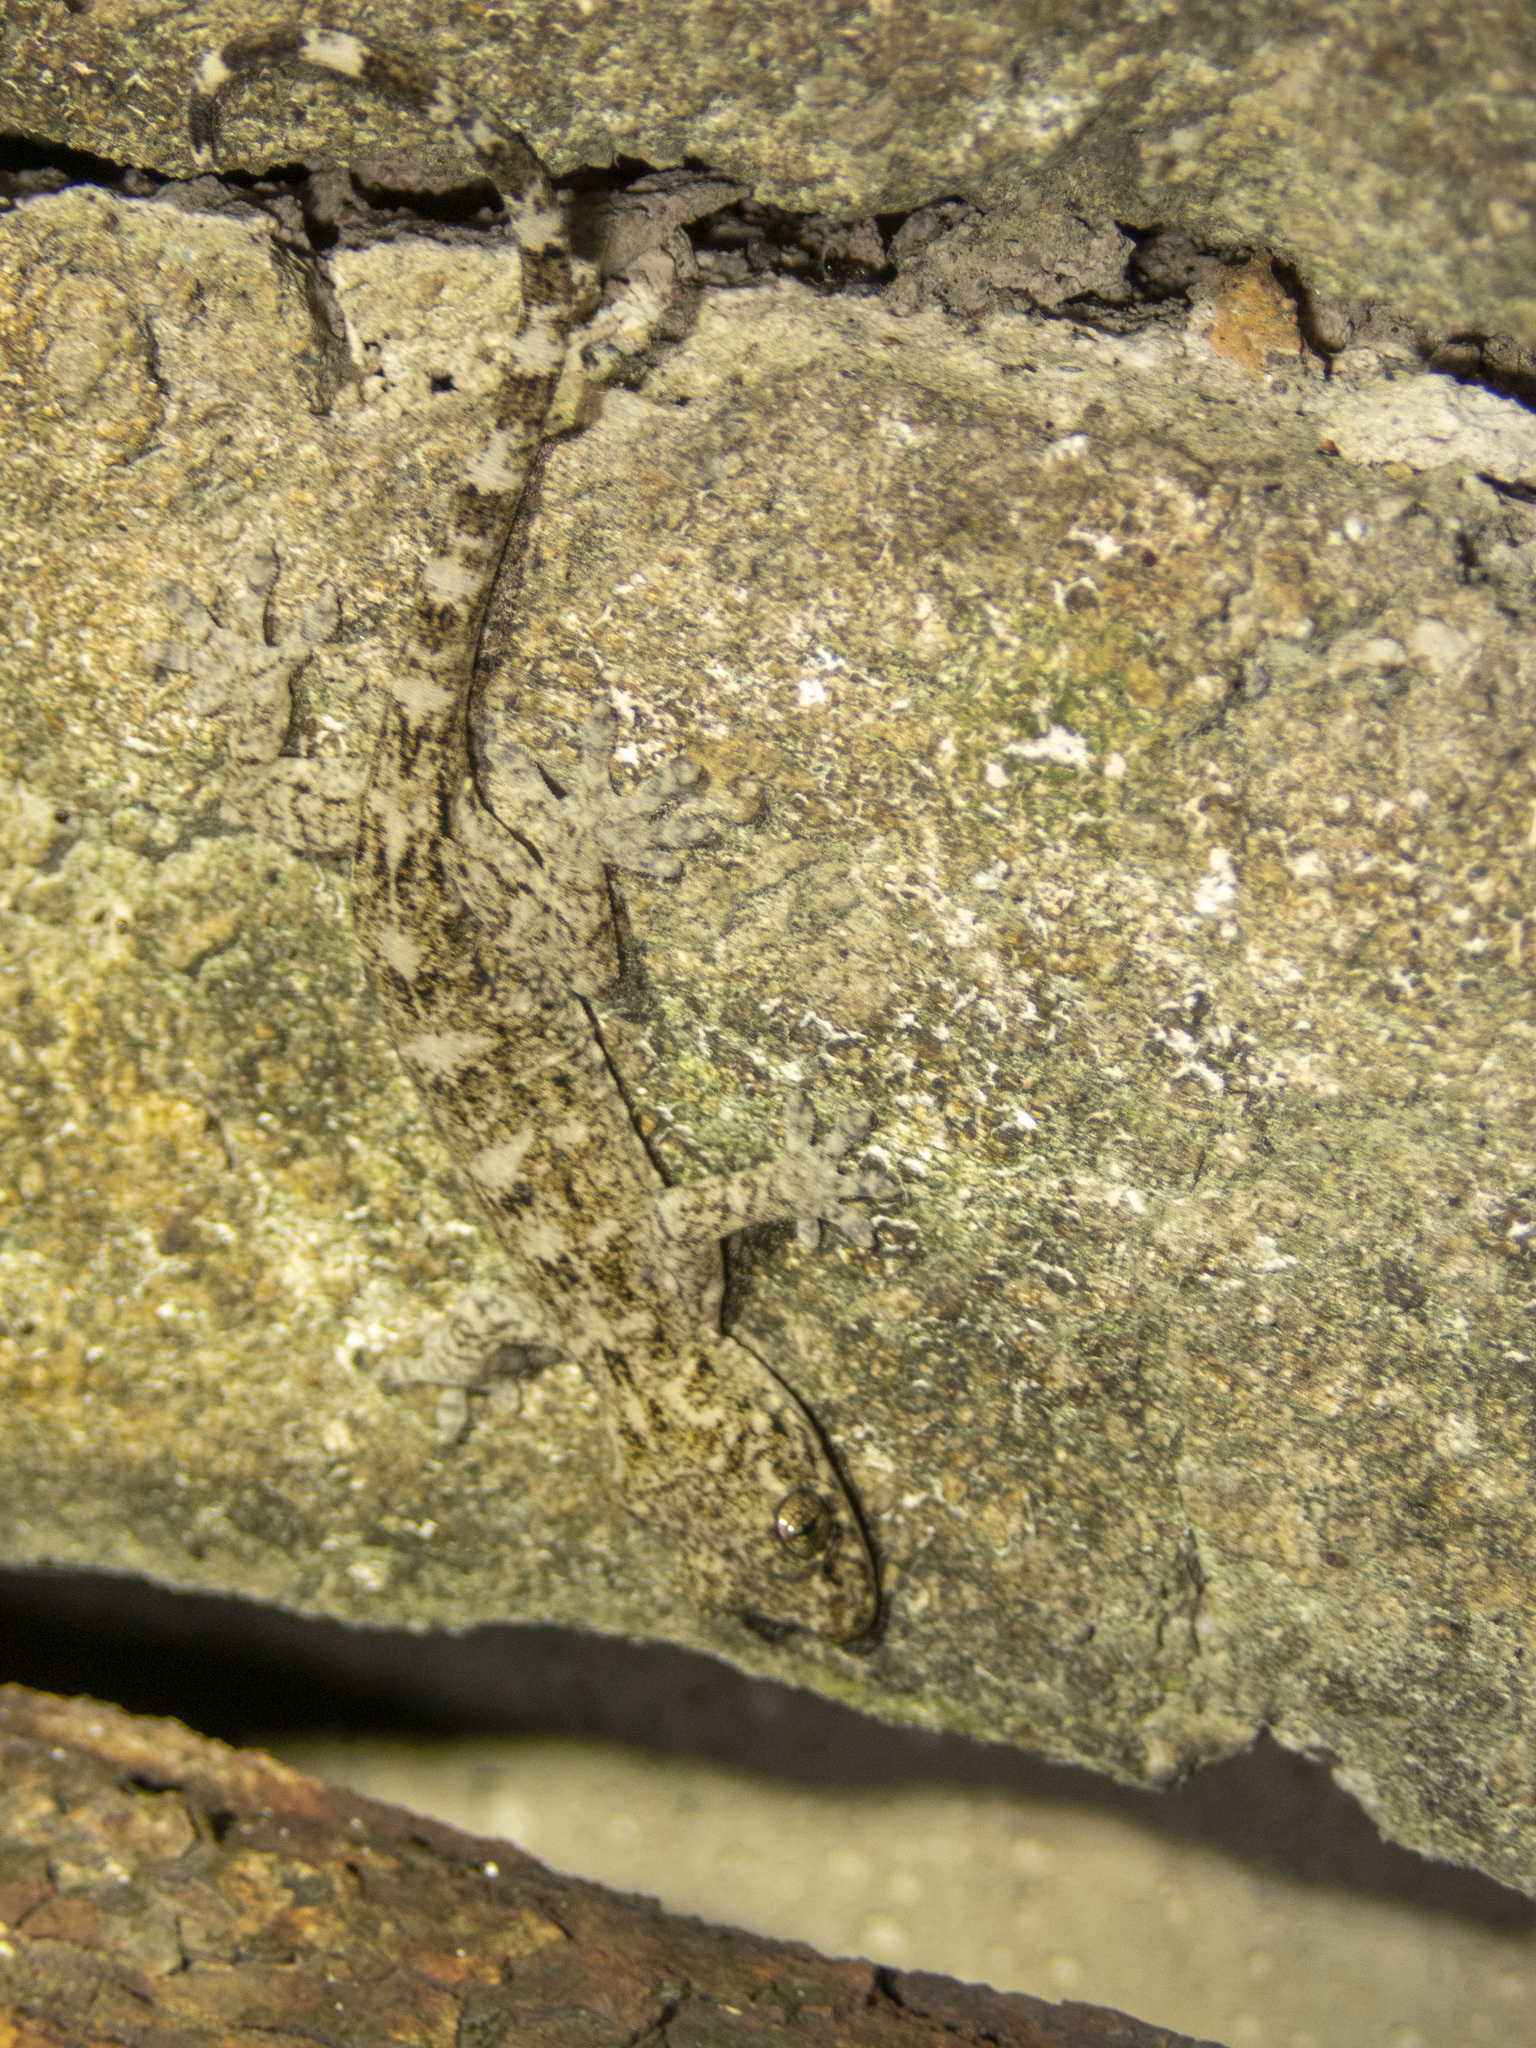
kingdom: Animalia
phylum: Chordata
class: Squamata
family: Gekkonidae
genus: Gekko
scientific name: Gekko chinensis
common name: Gray's chinese gecko
